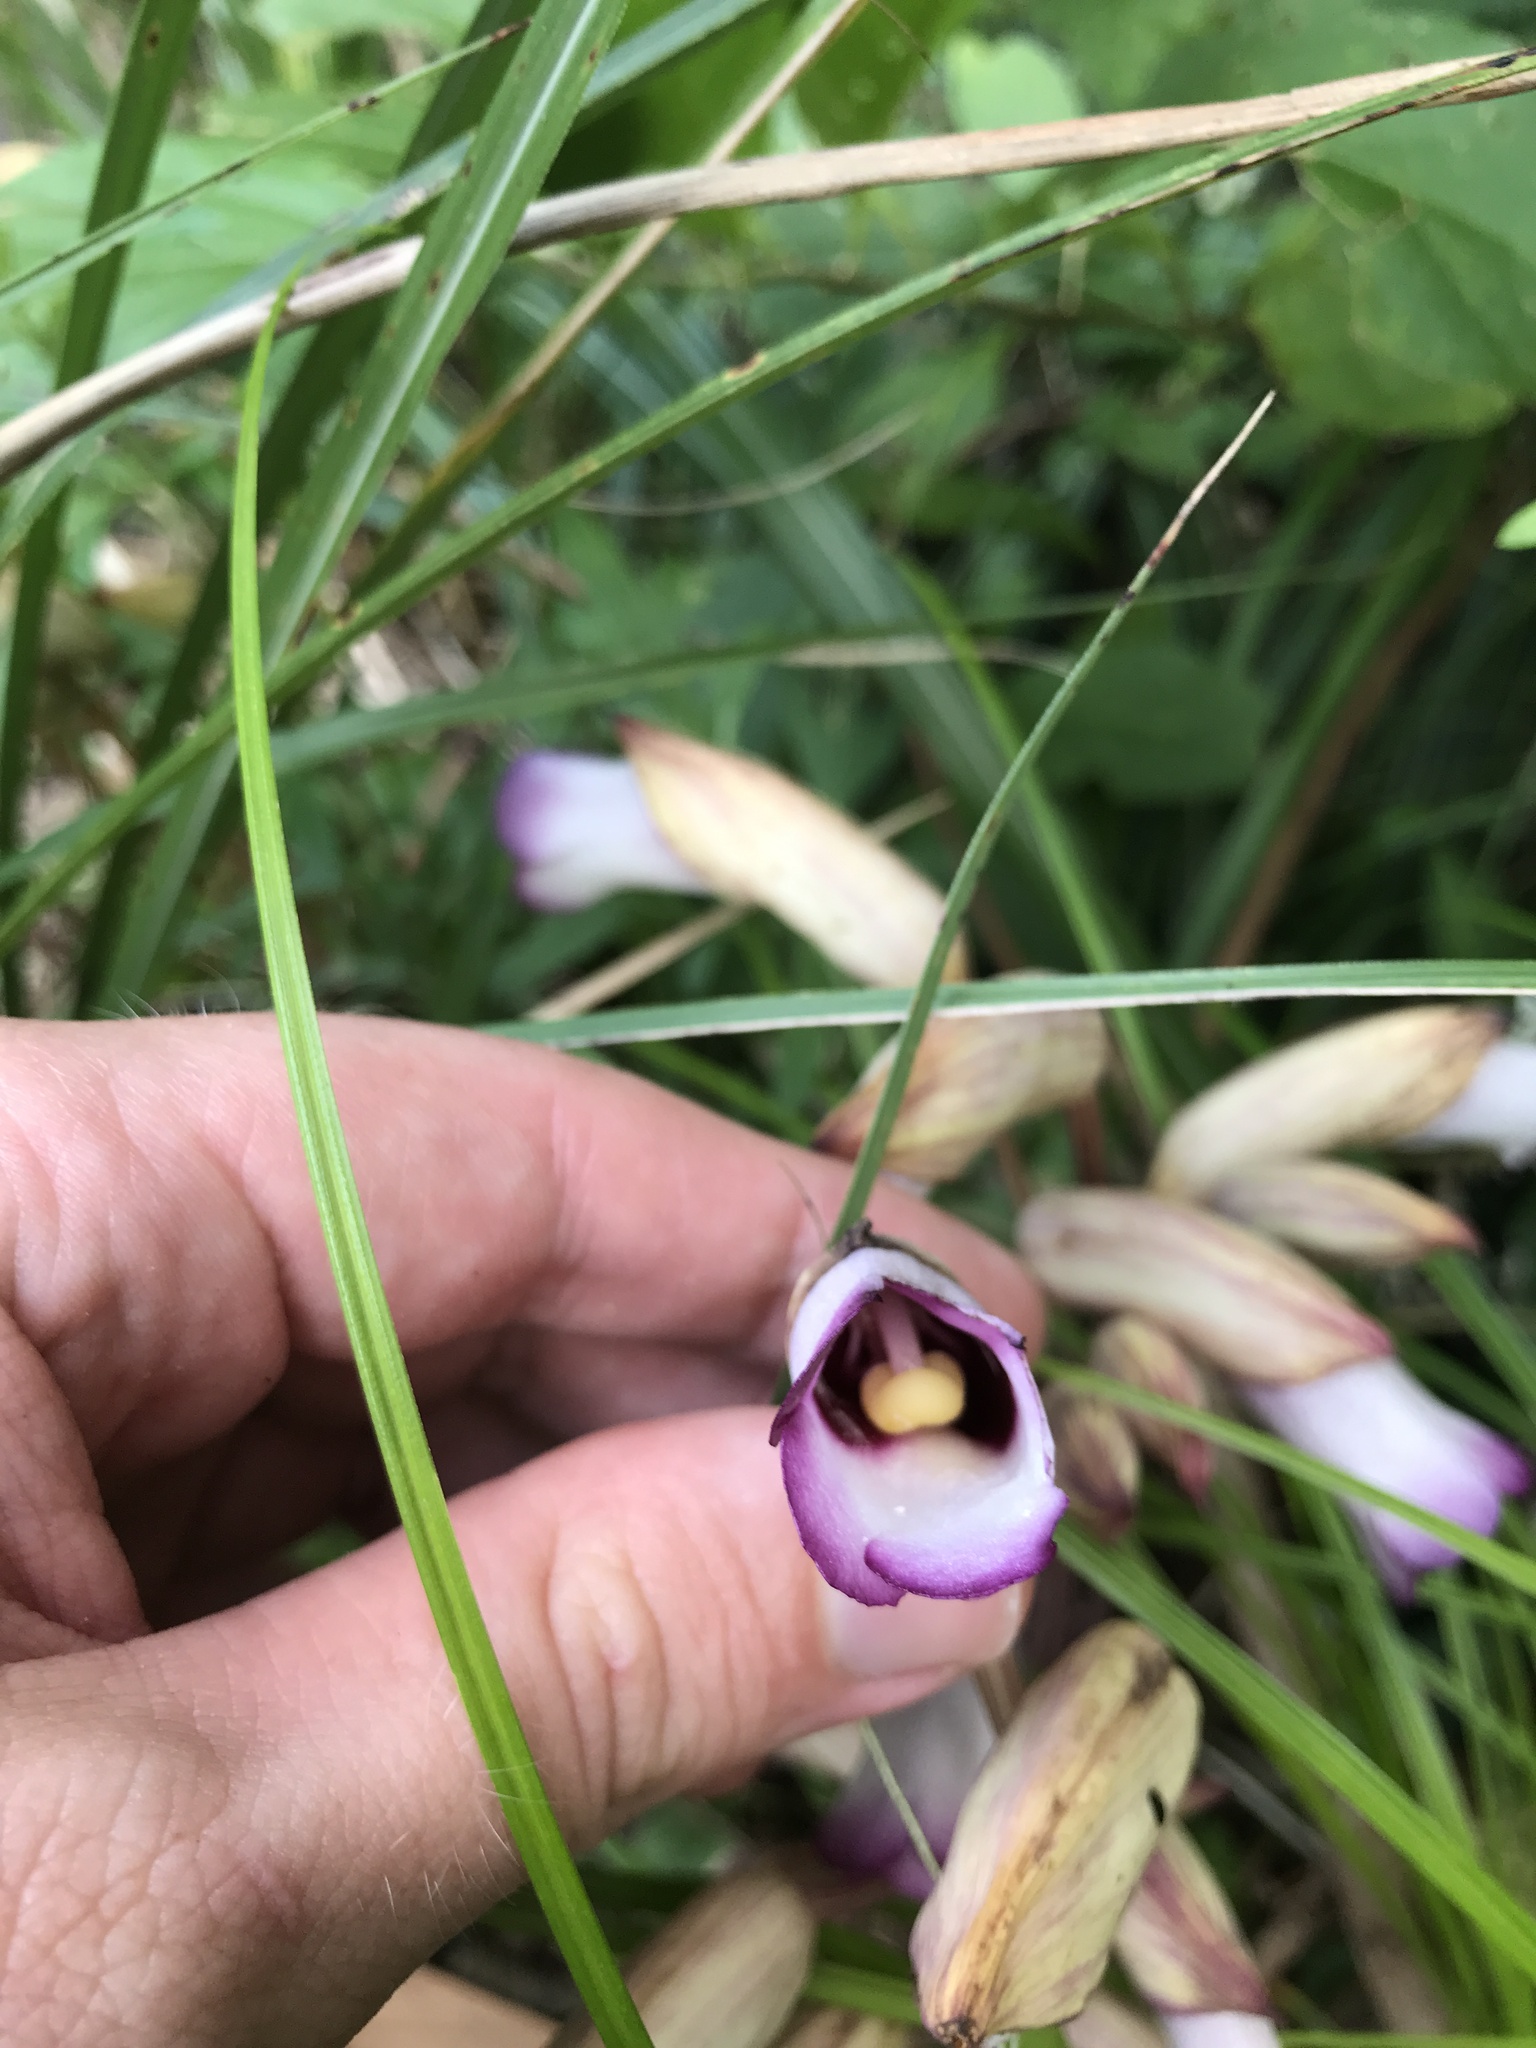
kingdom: Plantae
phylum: Tracheophyta
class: Magnoliopsida
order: Lamiales
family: Orobanchaceae
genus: Aeginetia
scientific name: Aeginetia indica
